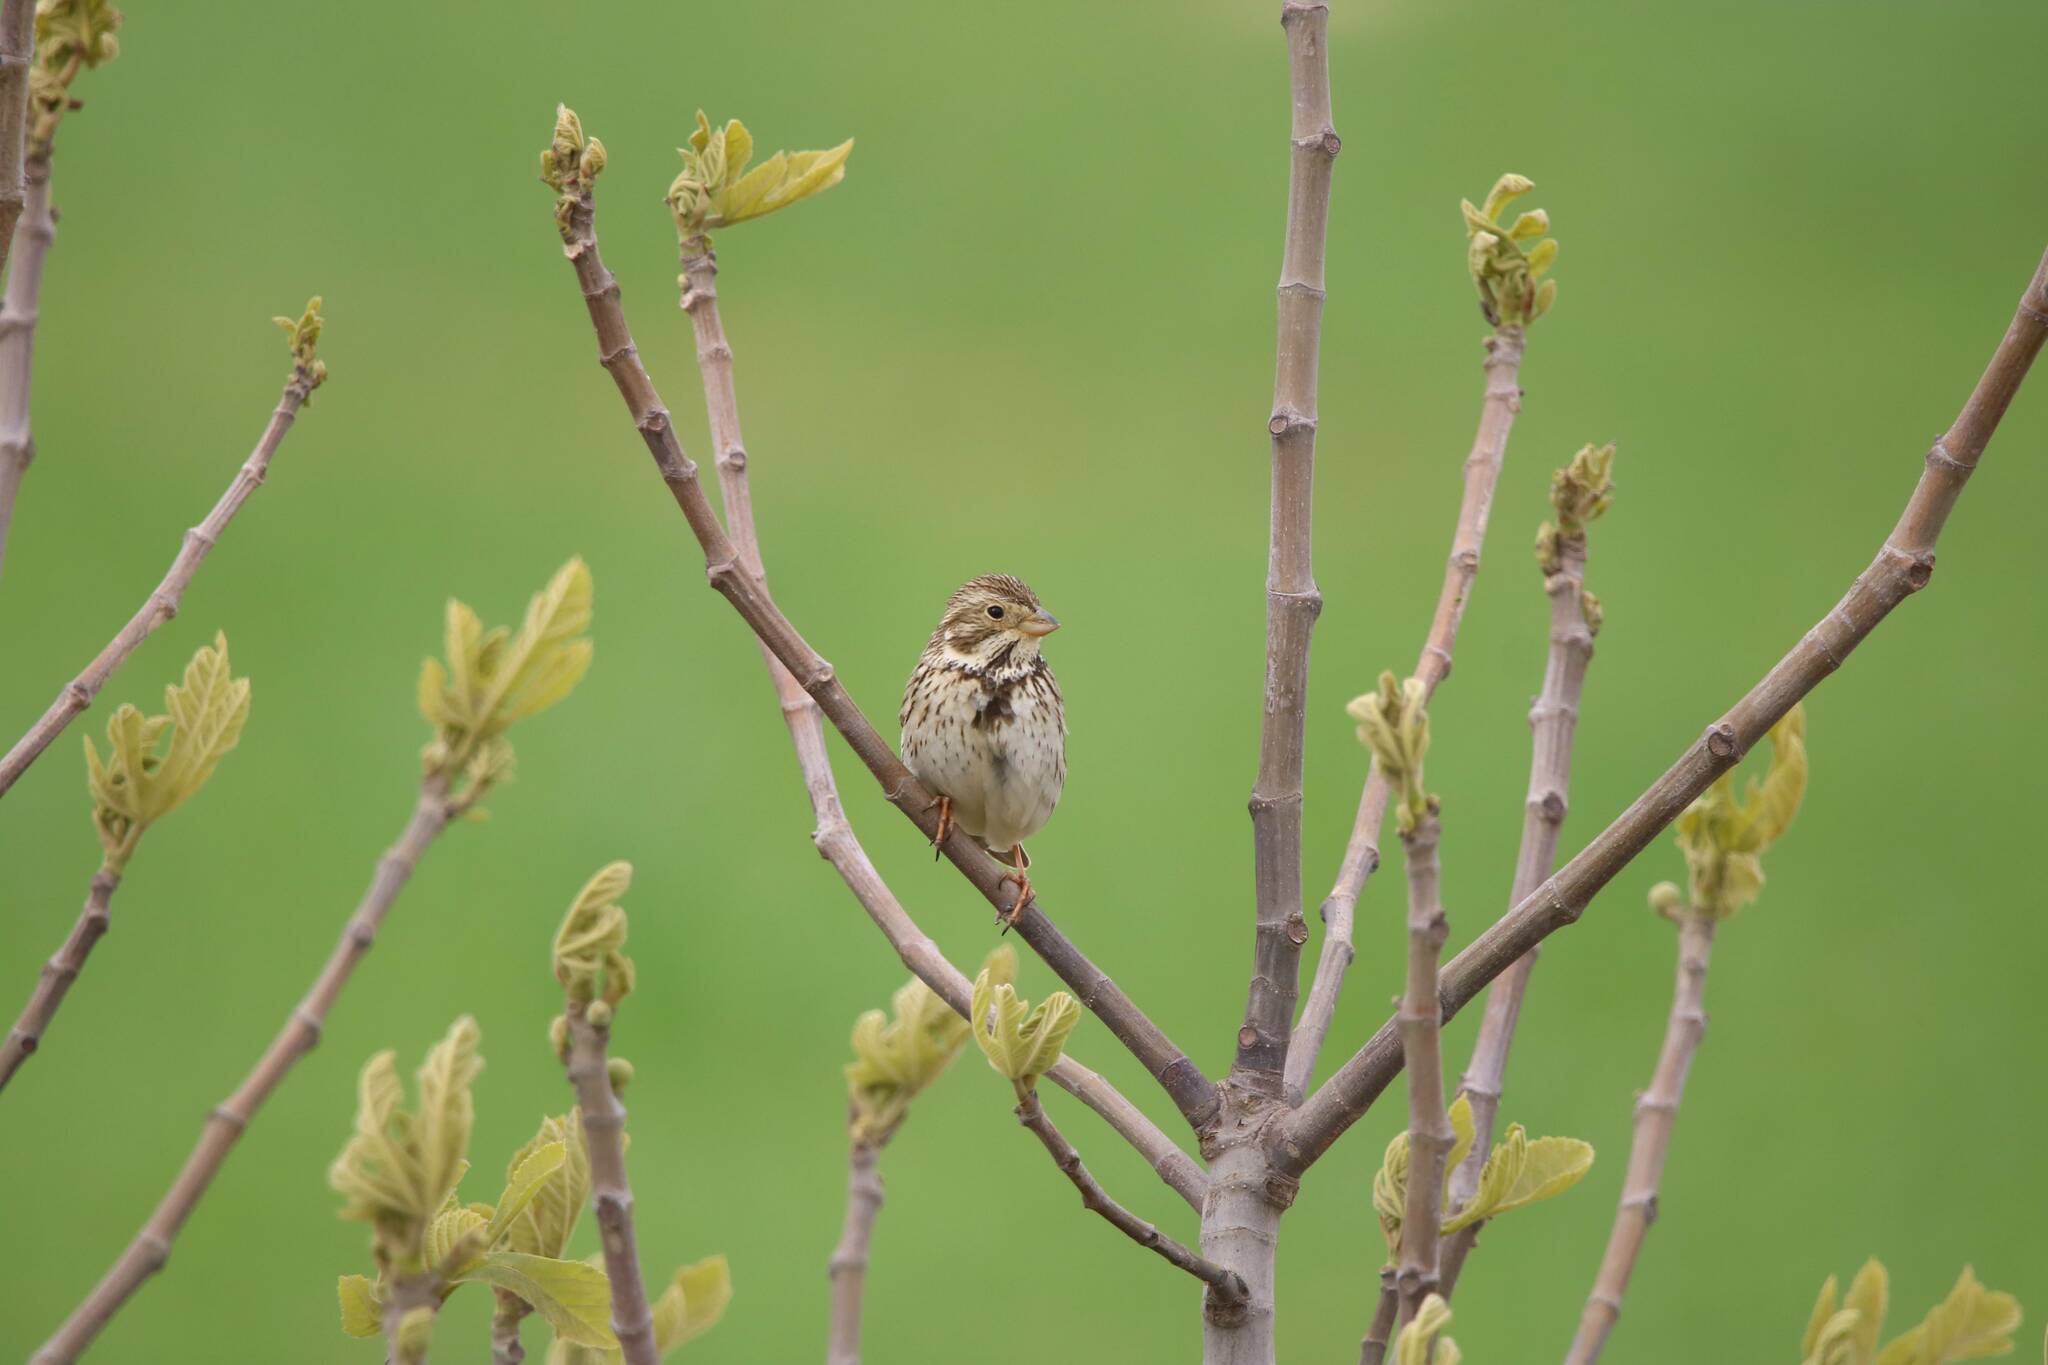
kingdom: Animalia
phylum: Chordata
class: Aves
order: Passeriformes
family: Emberizidae
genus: Emberiza
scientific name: Emberiza calandra
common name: Corn bunting
